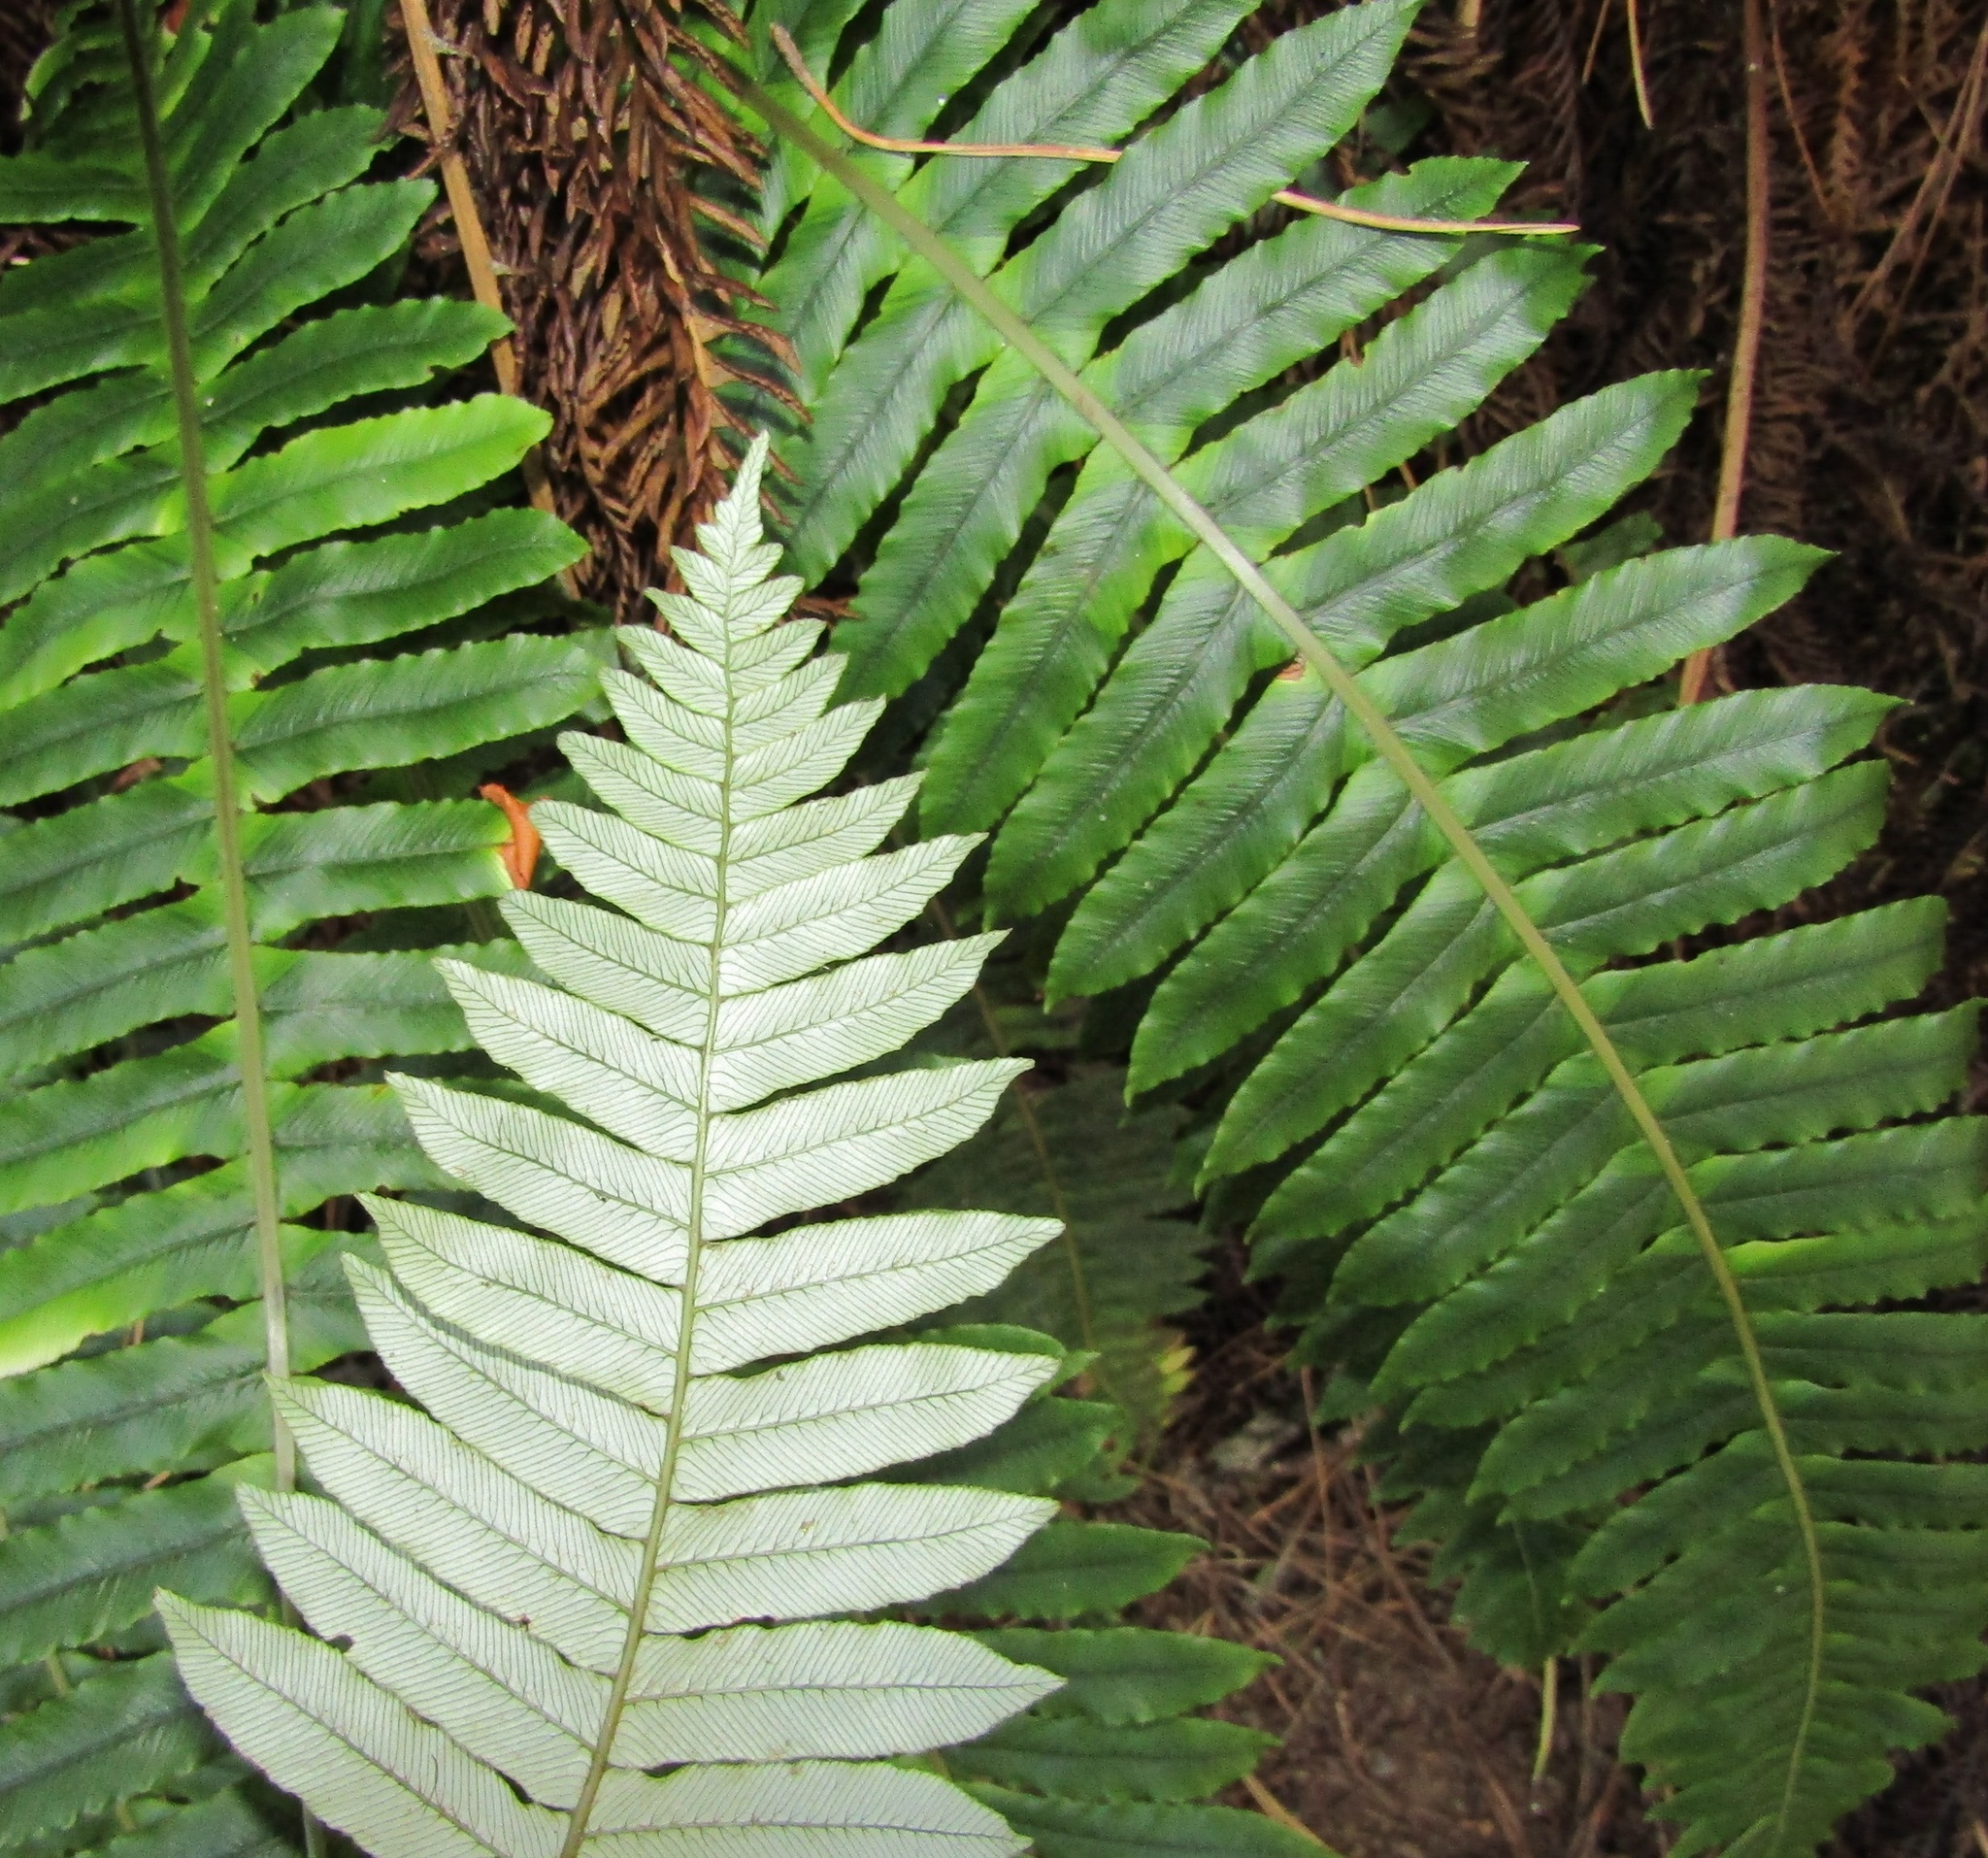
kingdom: Plantae
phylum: Tracheophyta
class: Polypodiopsida
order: Polypodiales
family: Blechnaceae
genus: Lomaria
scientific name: Lomaria discolor
